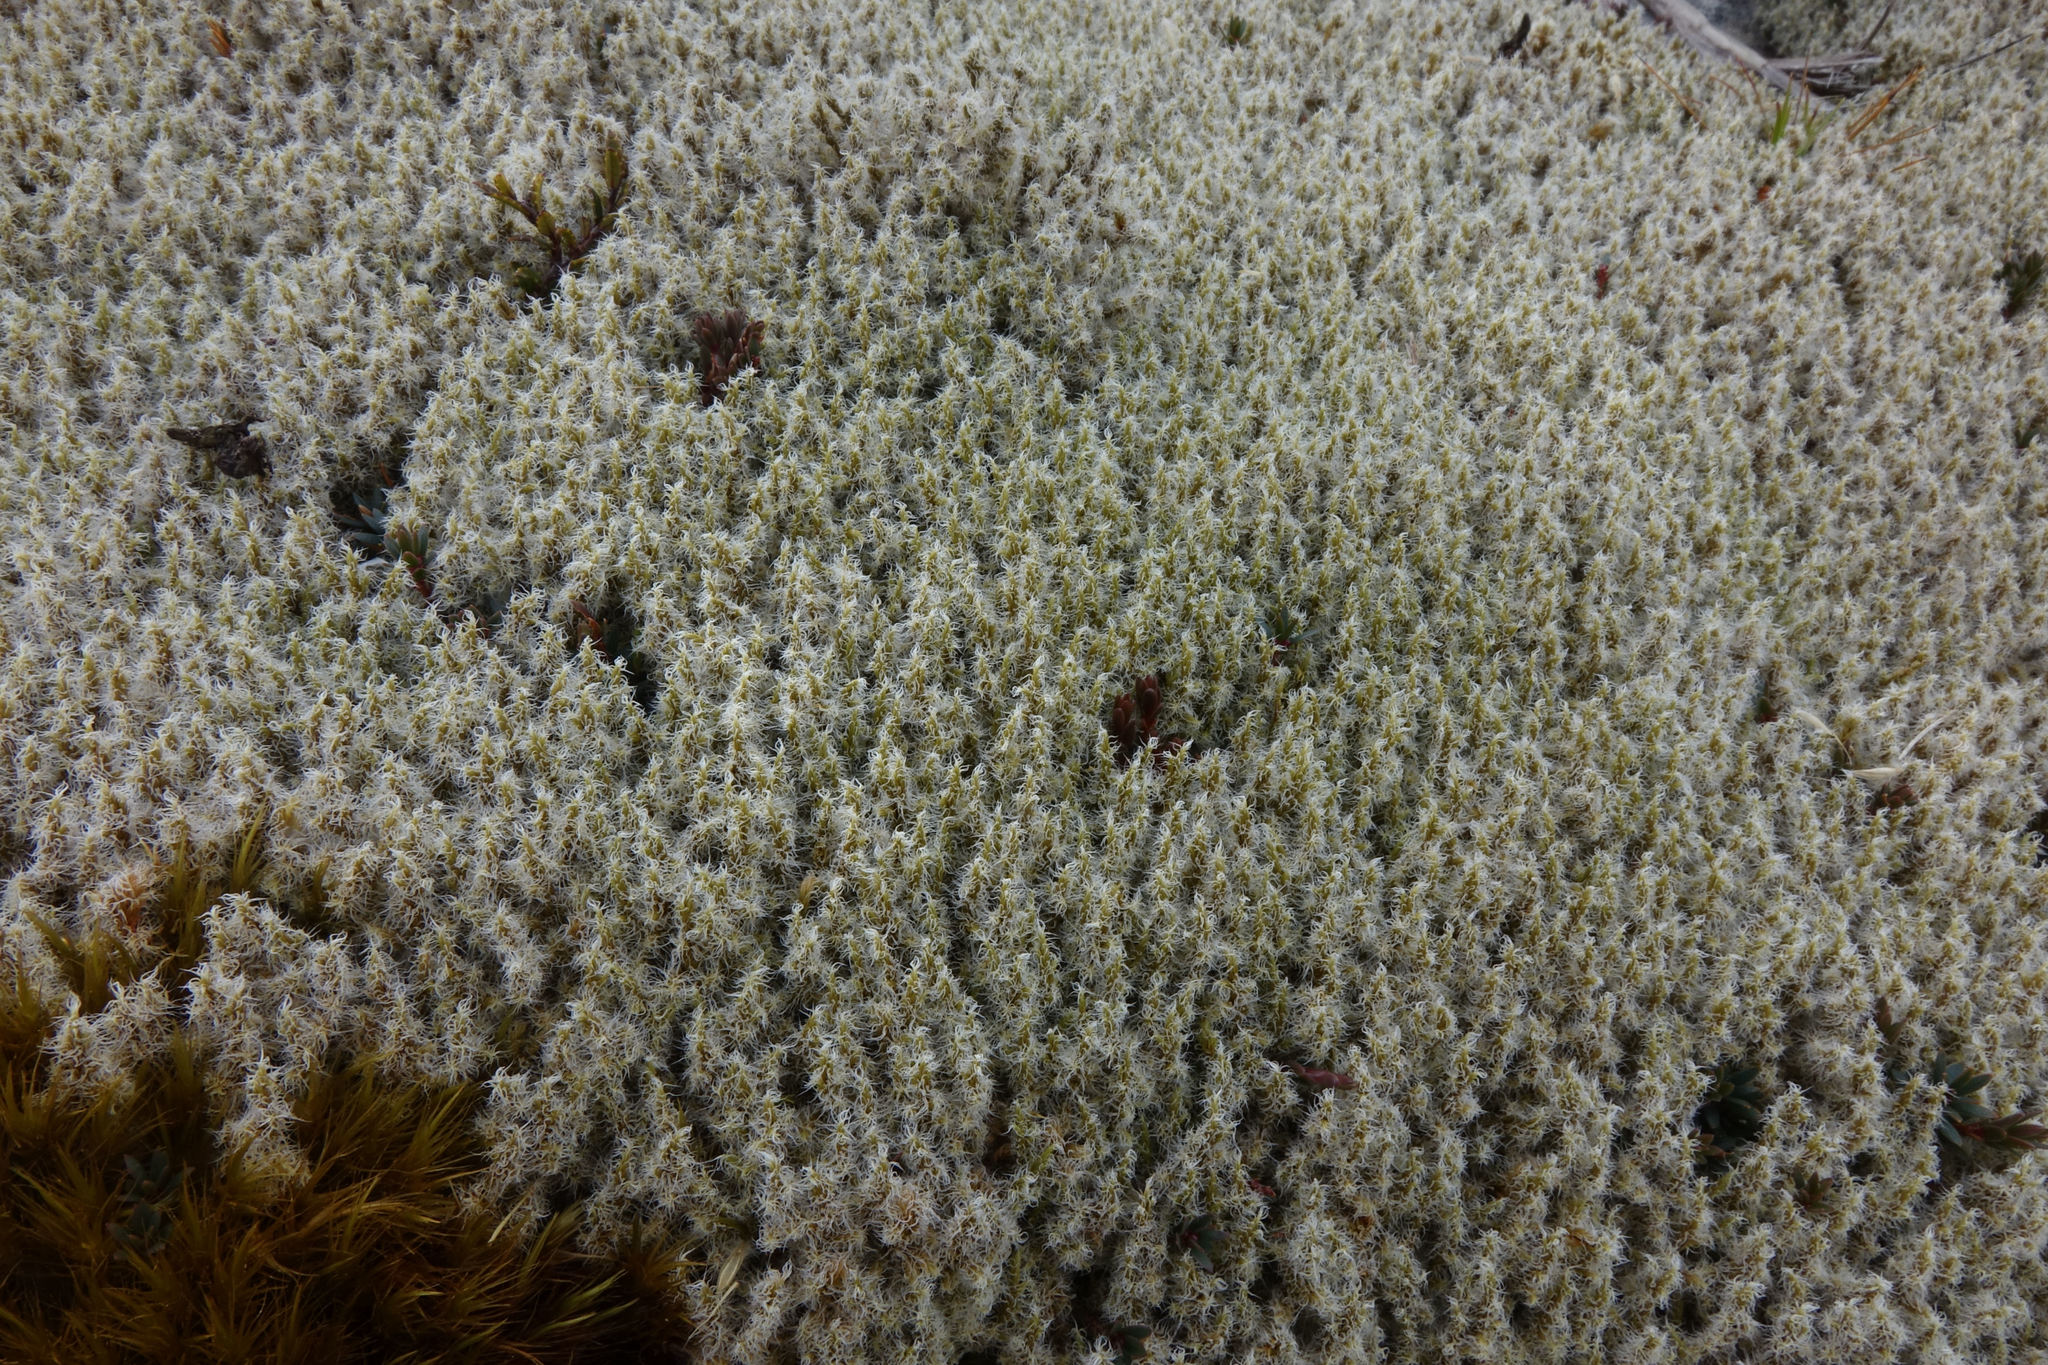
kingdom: Plantae
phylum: Bryophyta
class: Bryopsida
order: Grimmiales
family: Grimmiaceae
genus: Racomitrium
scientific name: Racomitrium lanuginosum
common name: Hoary rock moss
